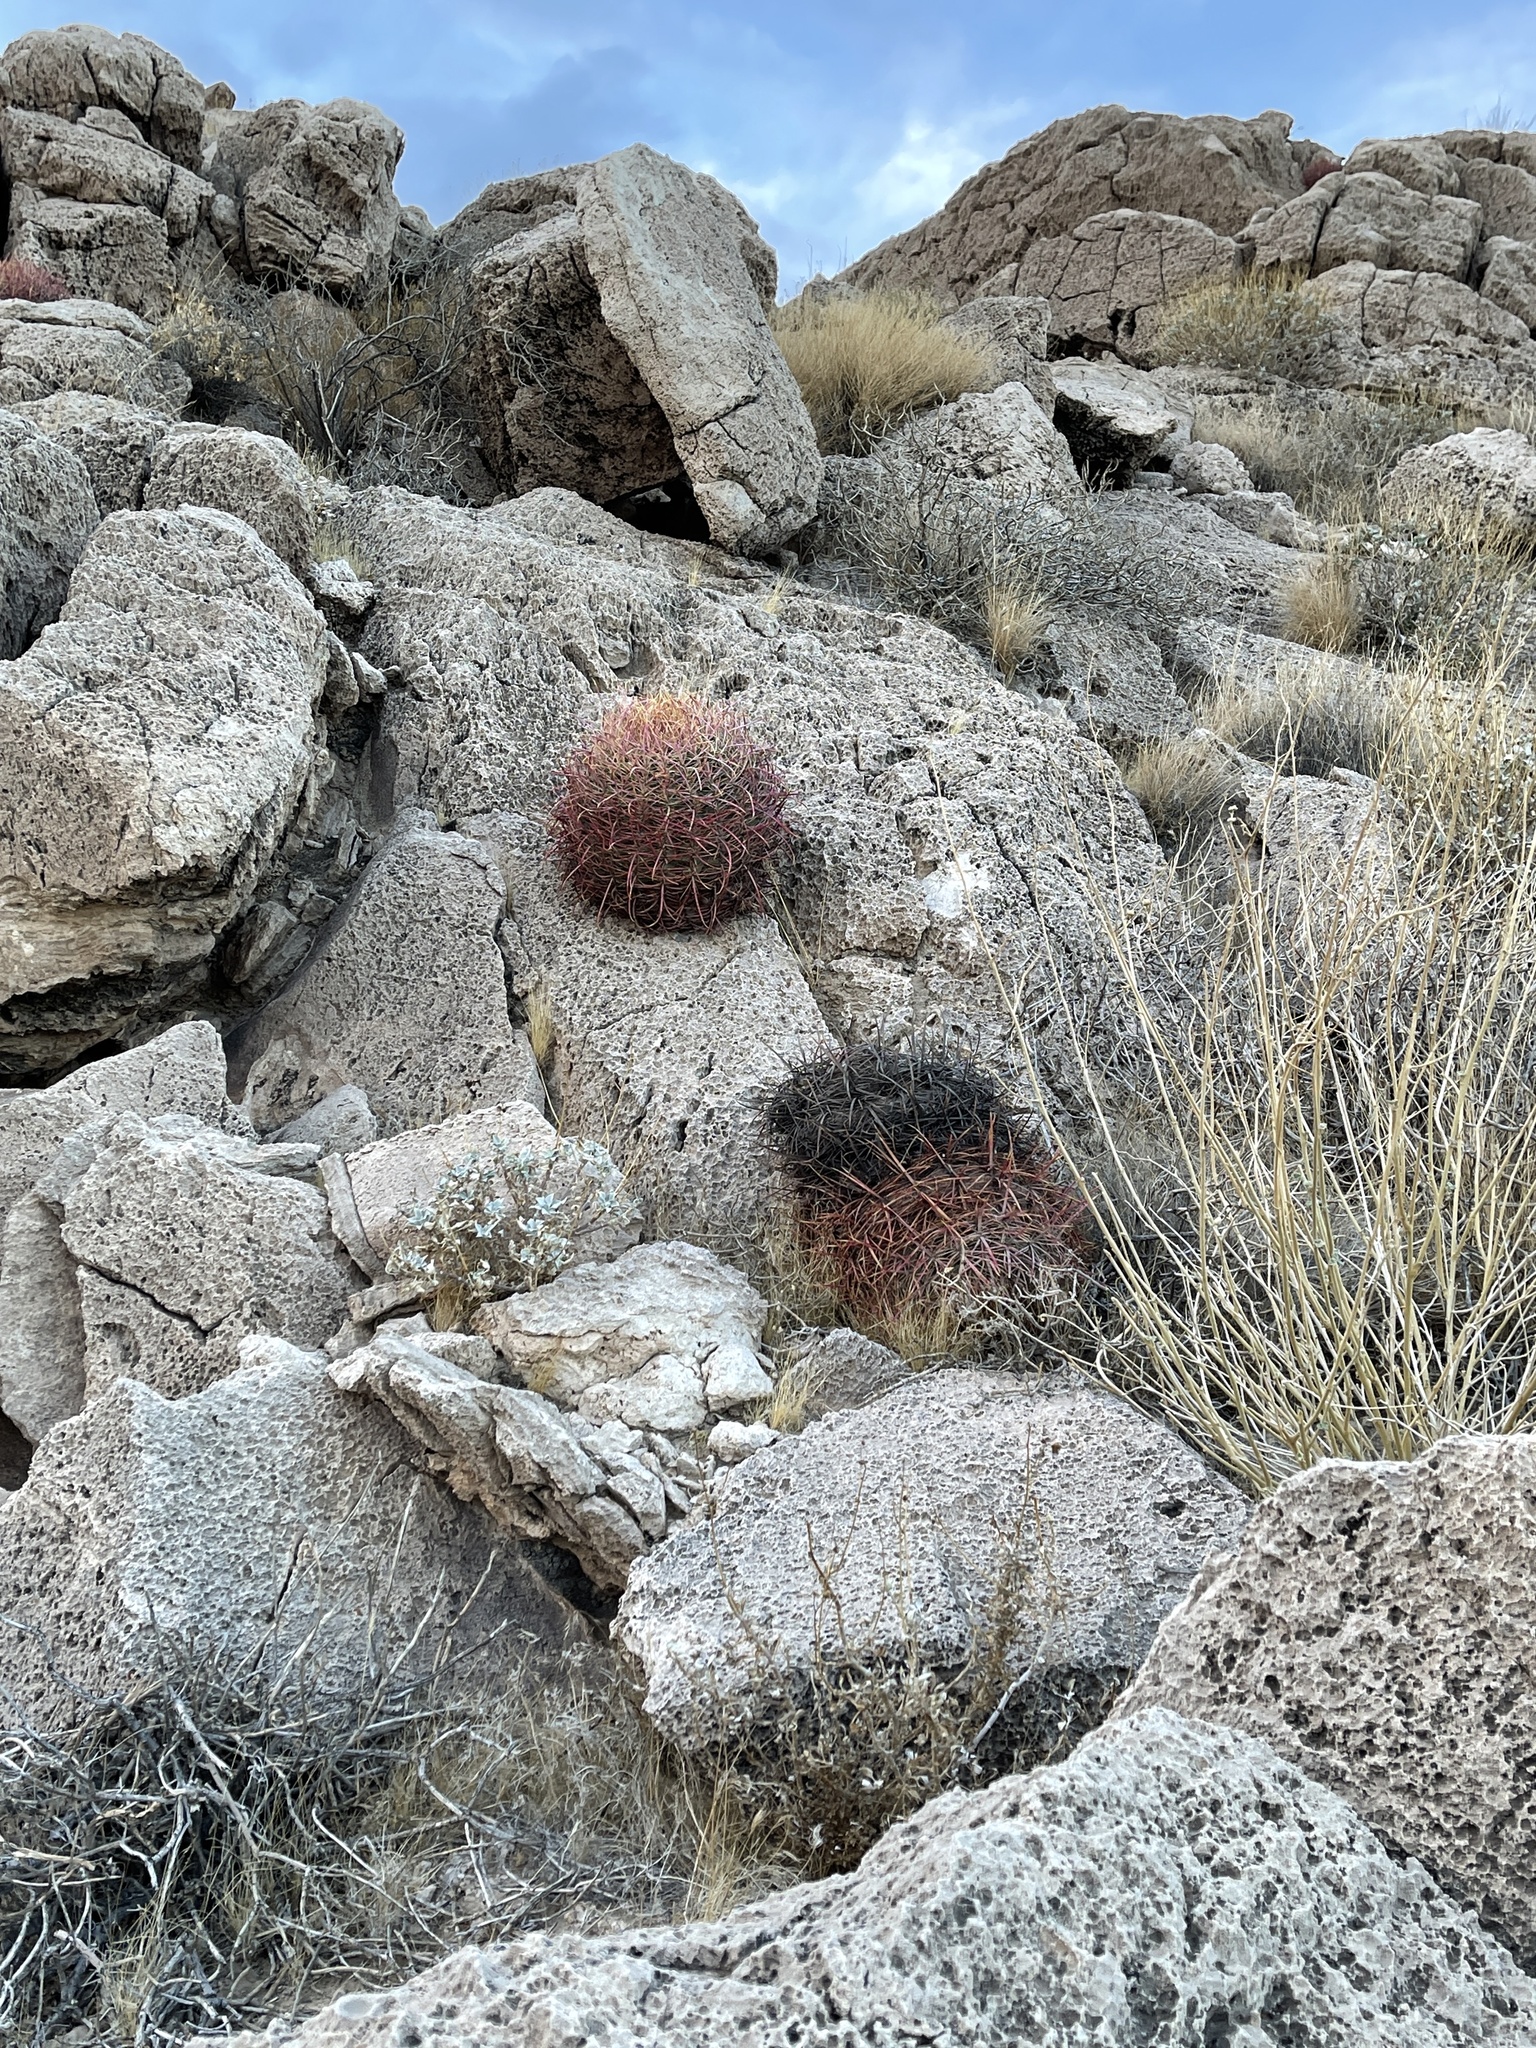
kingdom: Plantae
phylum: Tracheophyta
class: Magnoliopsida
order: Caryophyllales
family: Cactaceae
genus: Ferocactus
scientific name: Ferocactus cylindraceus
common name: California barrel cactus
